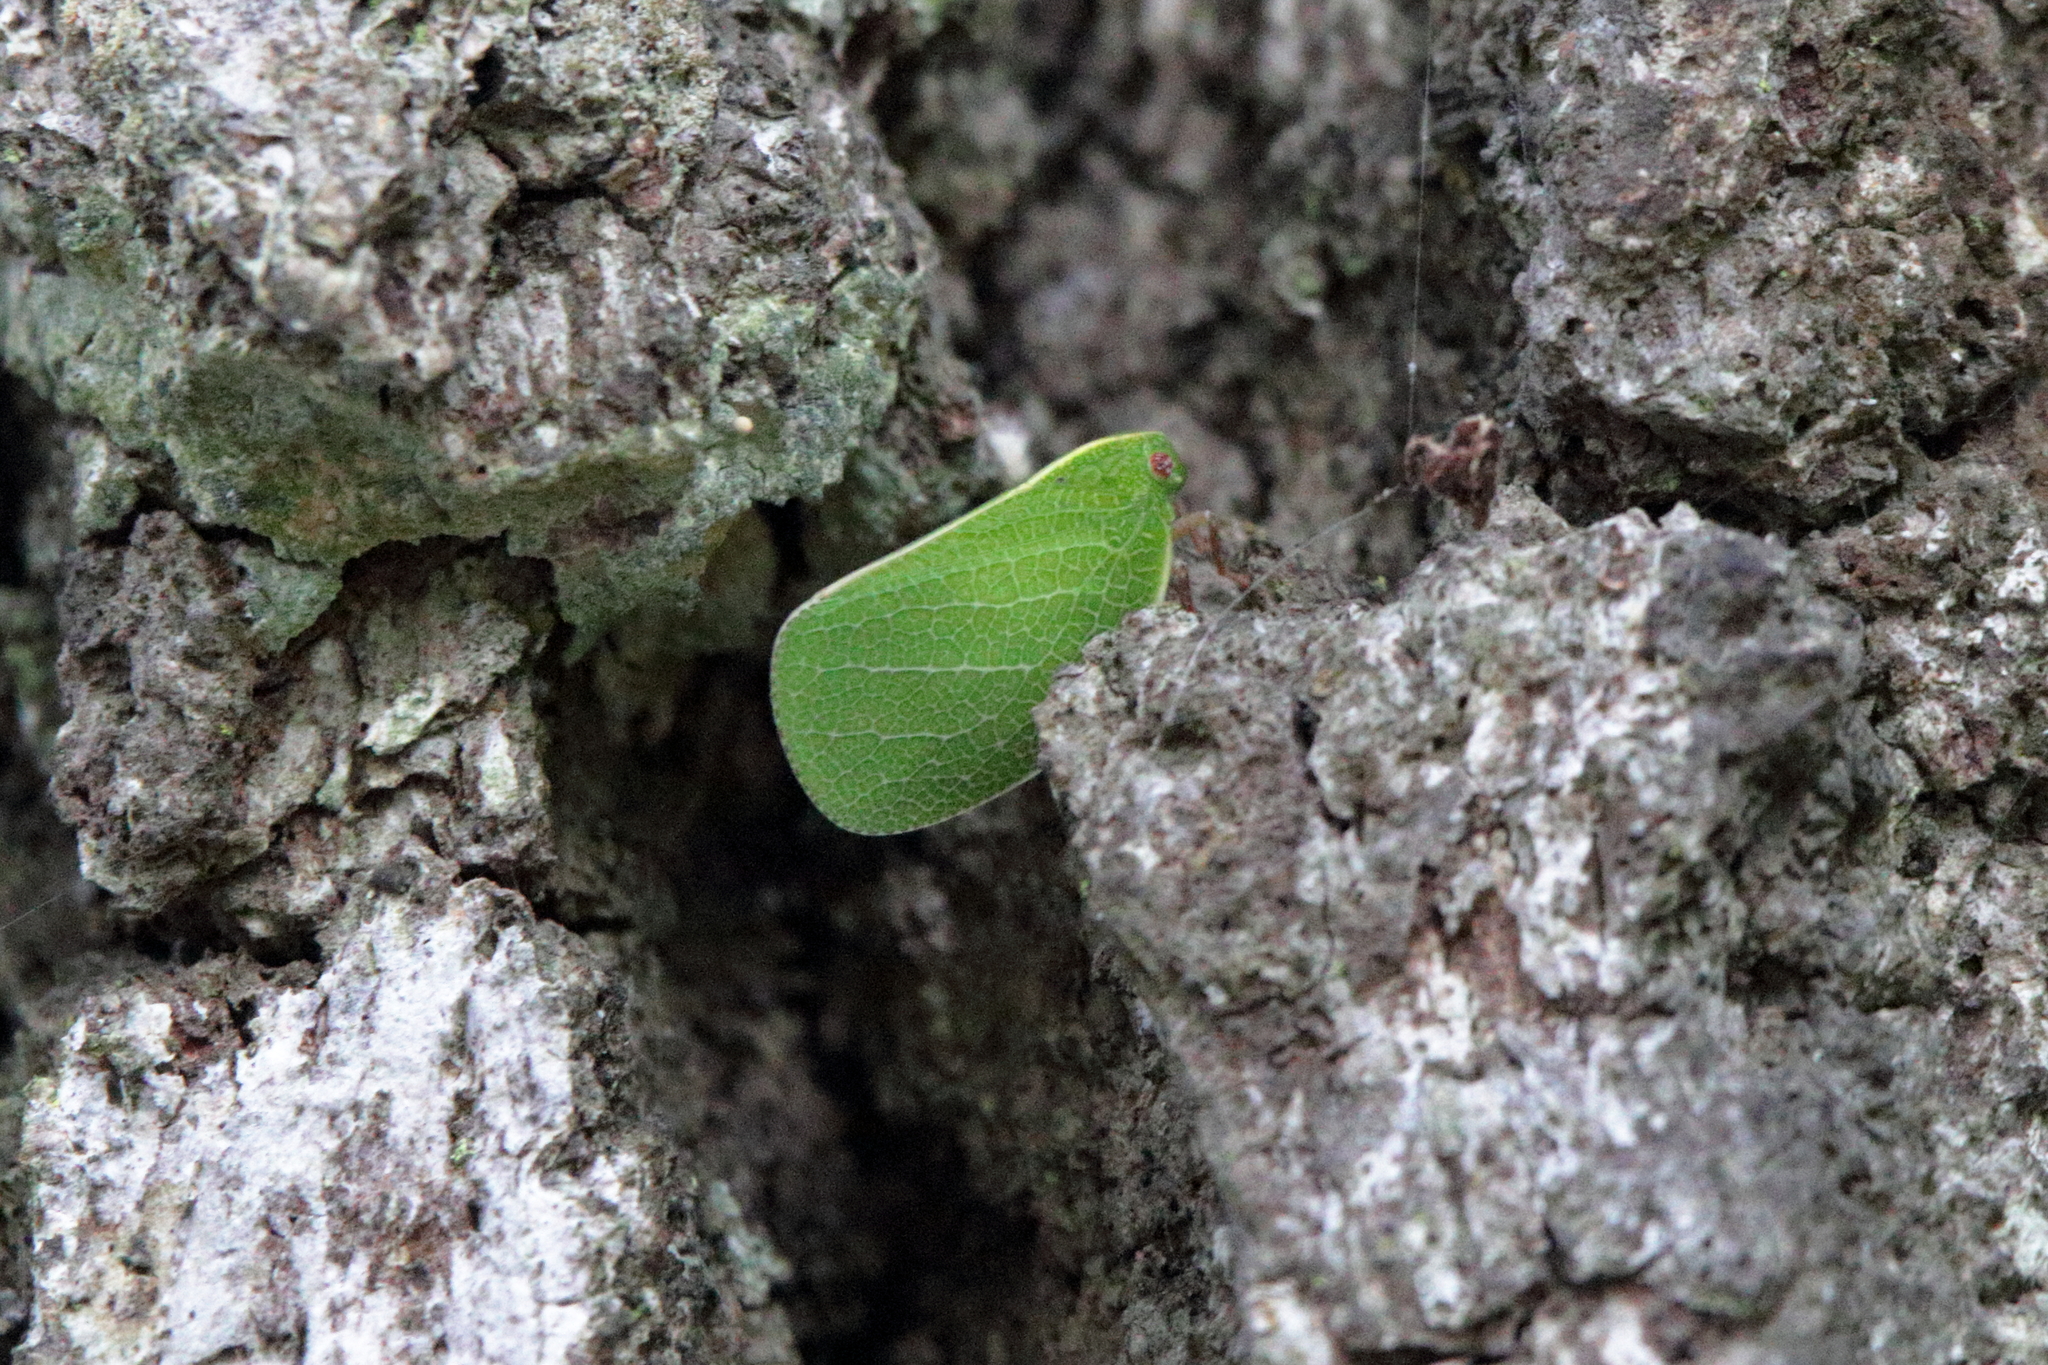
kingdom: Animalia
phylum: Arthropoda
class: Insecta
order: Hemiptera
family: Acanaloniidae
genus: Acanalonia
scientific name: Acanalonia servillei
